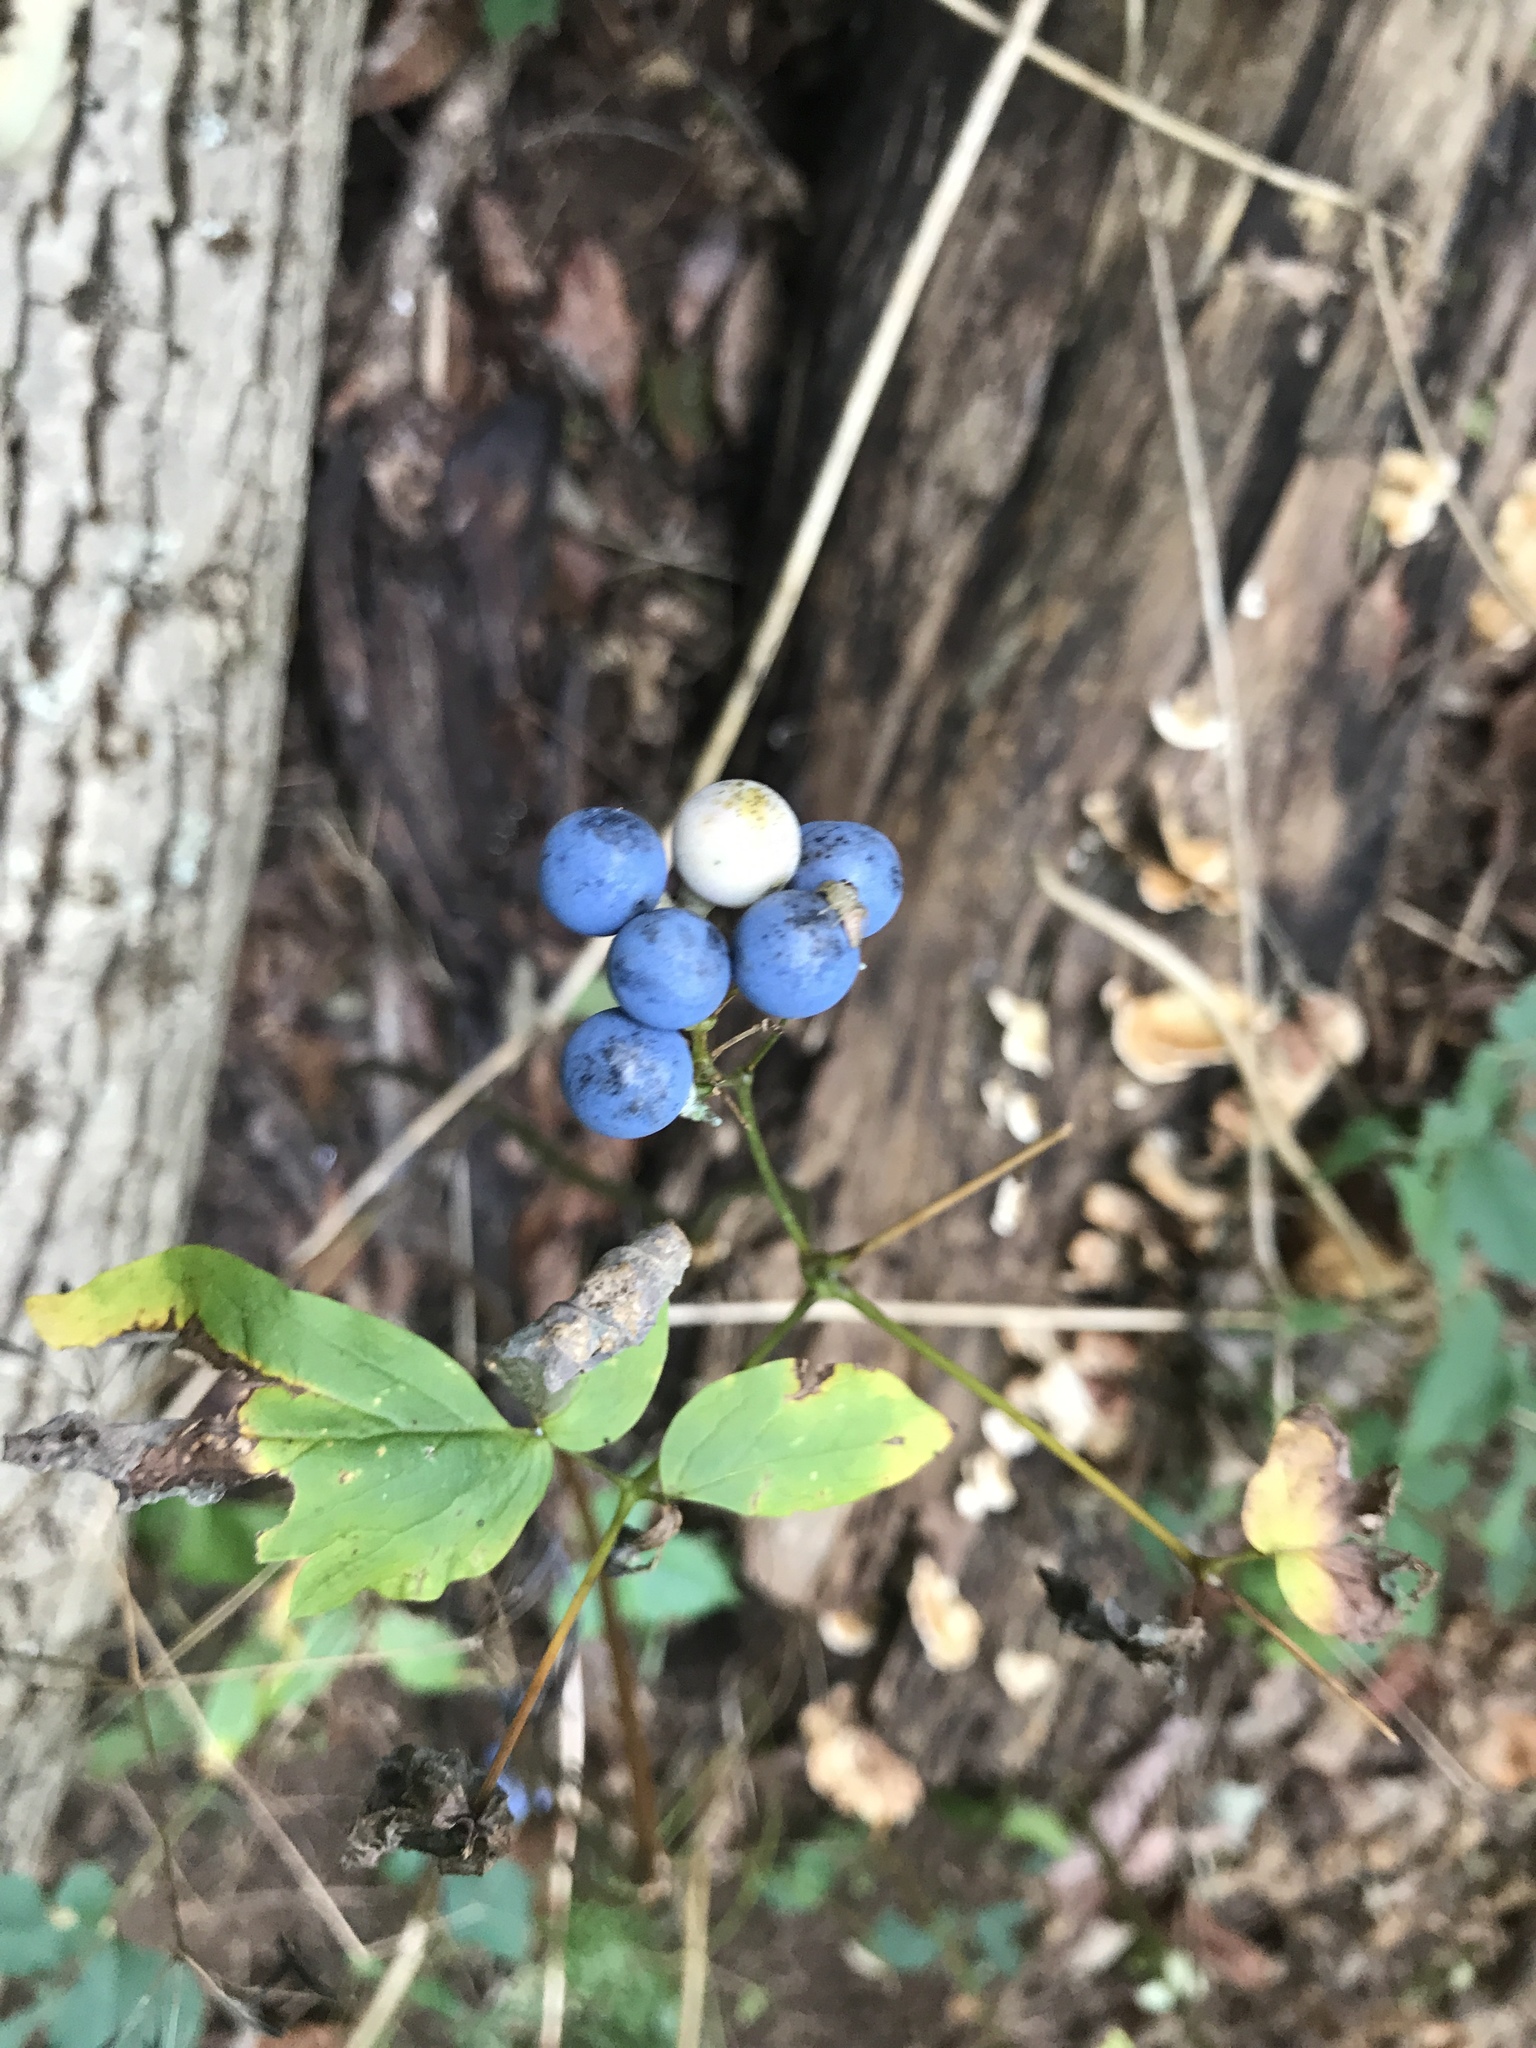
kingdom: Plantae
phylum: Tracheophyta
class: Magnoliopsida
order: Vitales
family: Vitaceae
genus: Ampelopsis
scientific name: Ampelopsis glandulosa
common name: Amur peppervine
